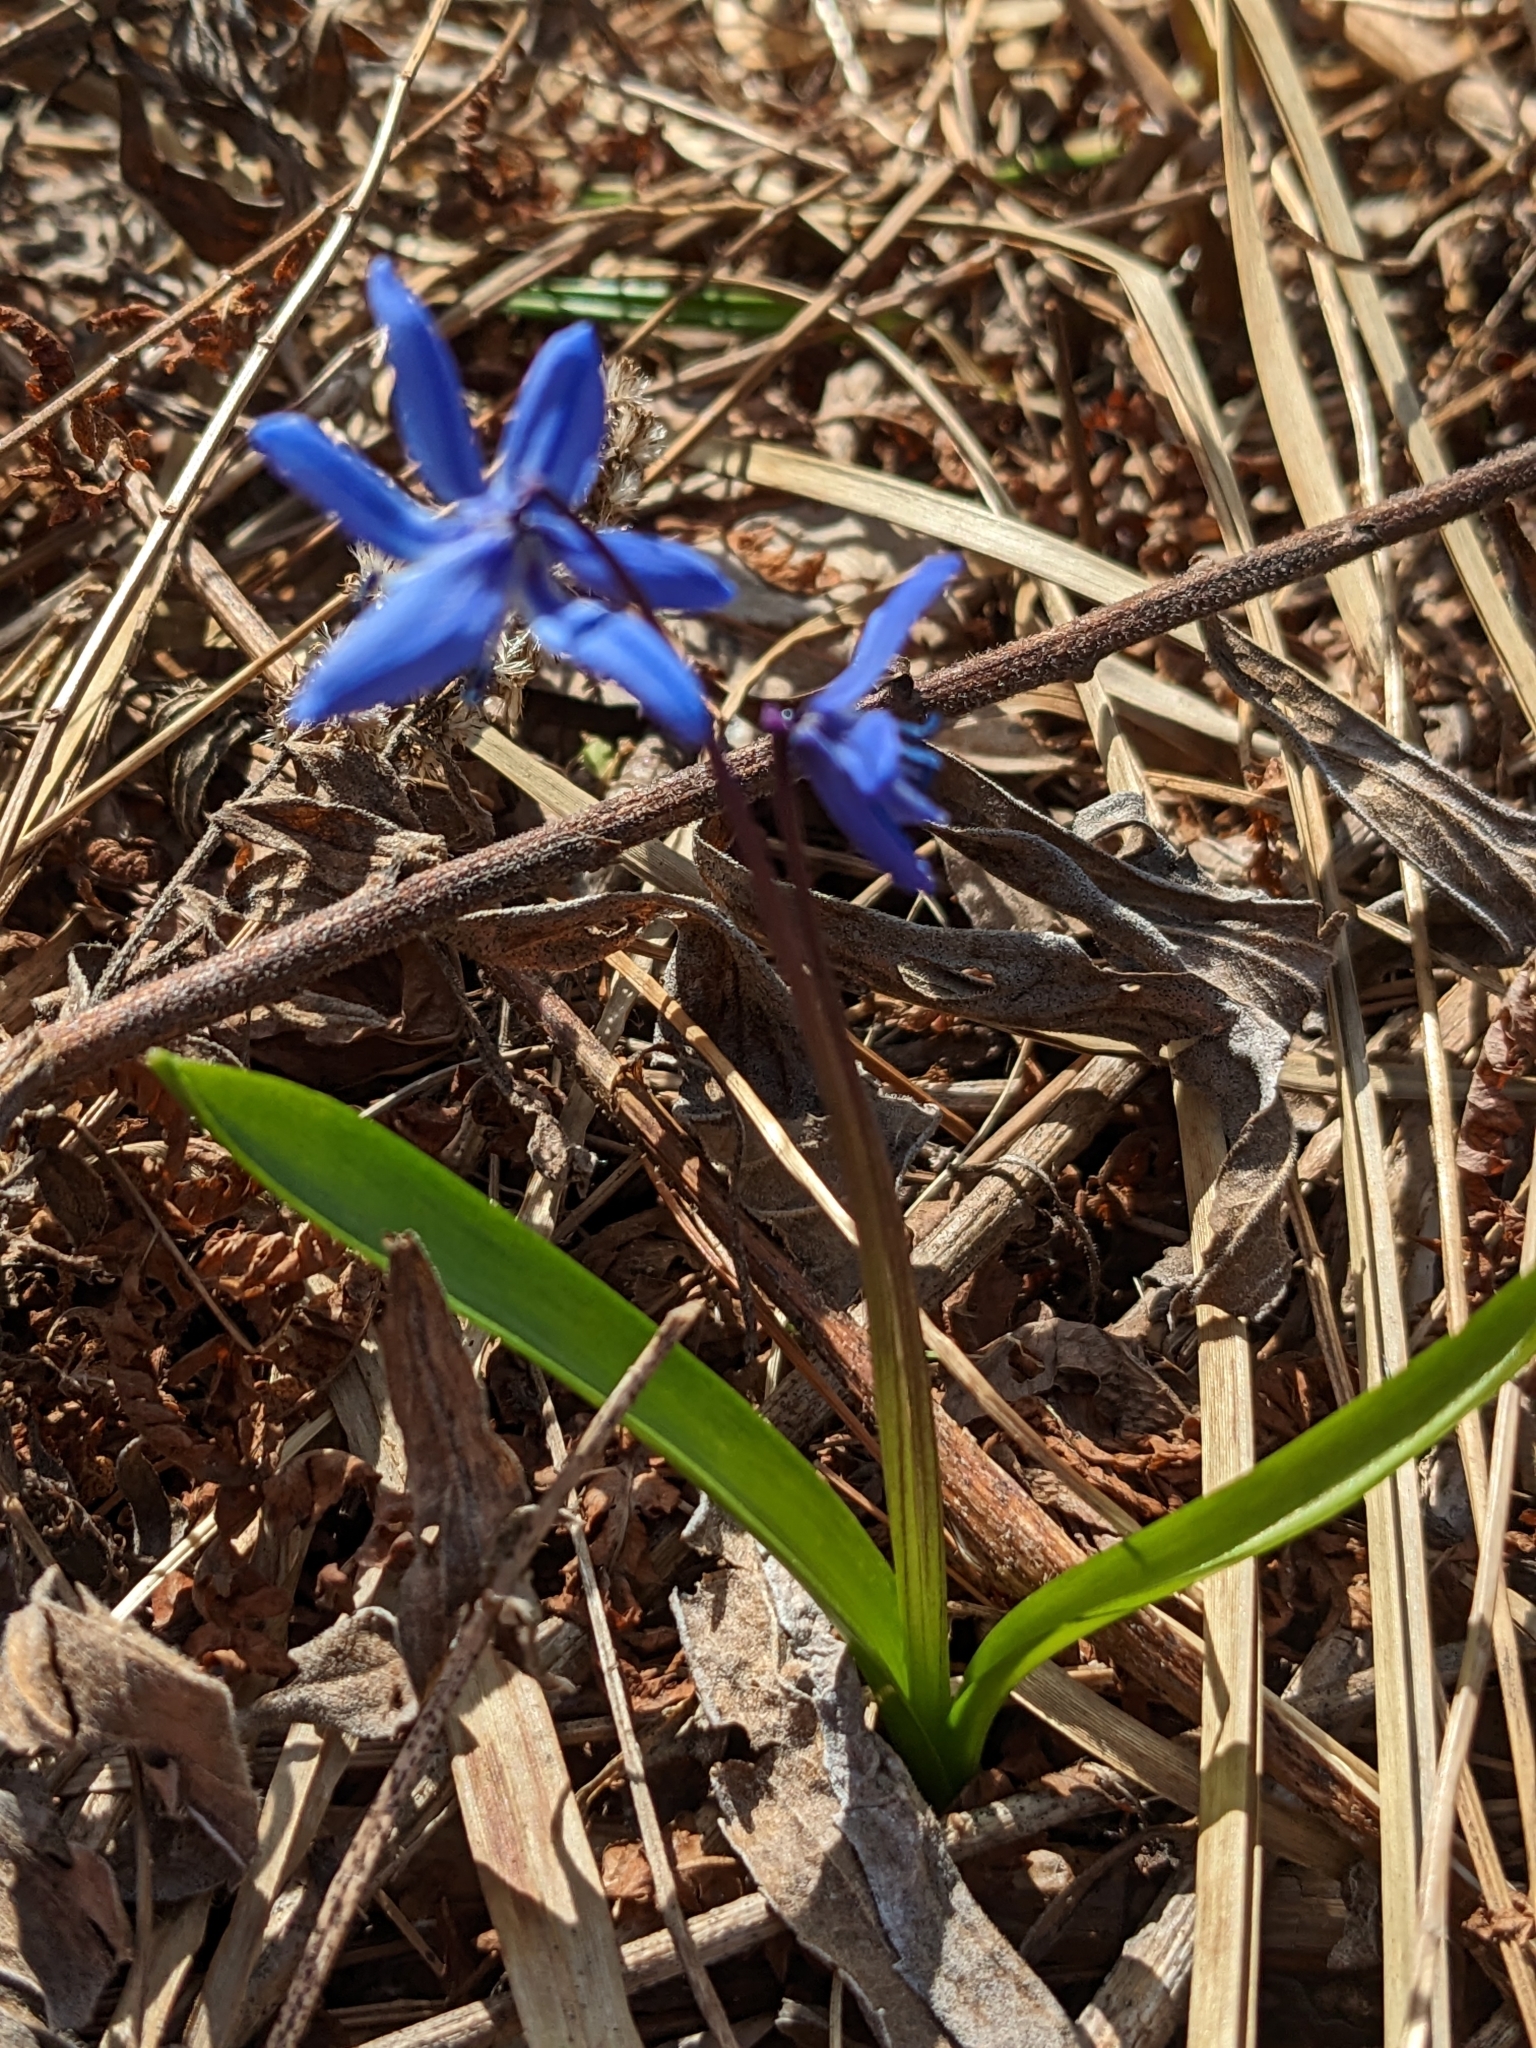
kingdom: Plantae
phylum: Tracheophyta
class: Liliopsida
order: Asparagales
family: Asparagaceae
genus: Scilla
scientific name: Scilla siberica
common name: Siberian squill
